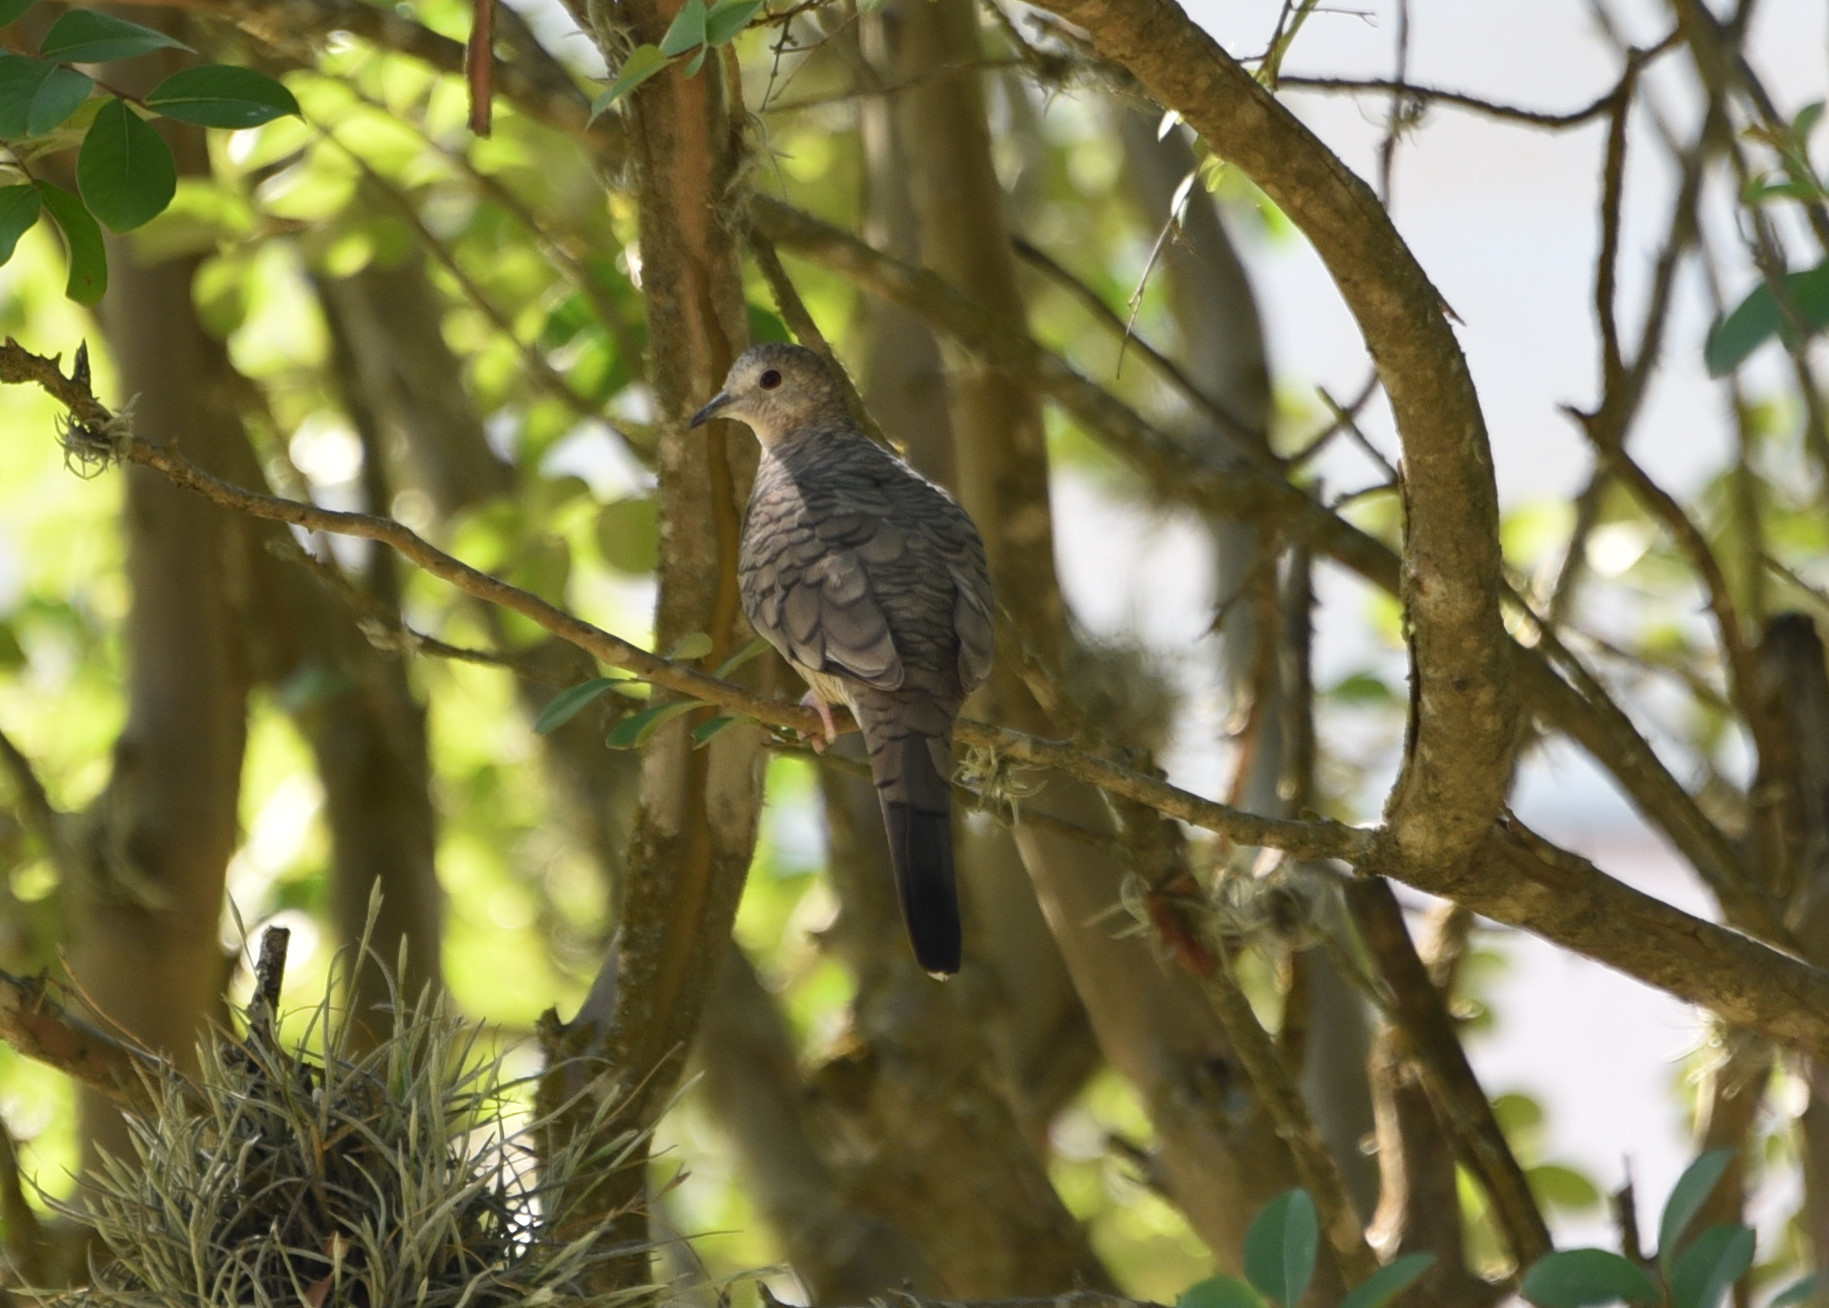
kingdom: Animalia
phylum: Chordata
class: Aves
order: Columbiformes
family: Columbidae
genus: Columbina
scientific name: Columbina inca
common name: Inca dove
